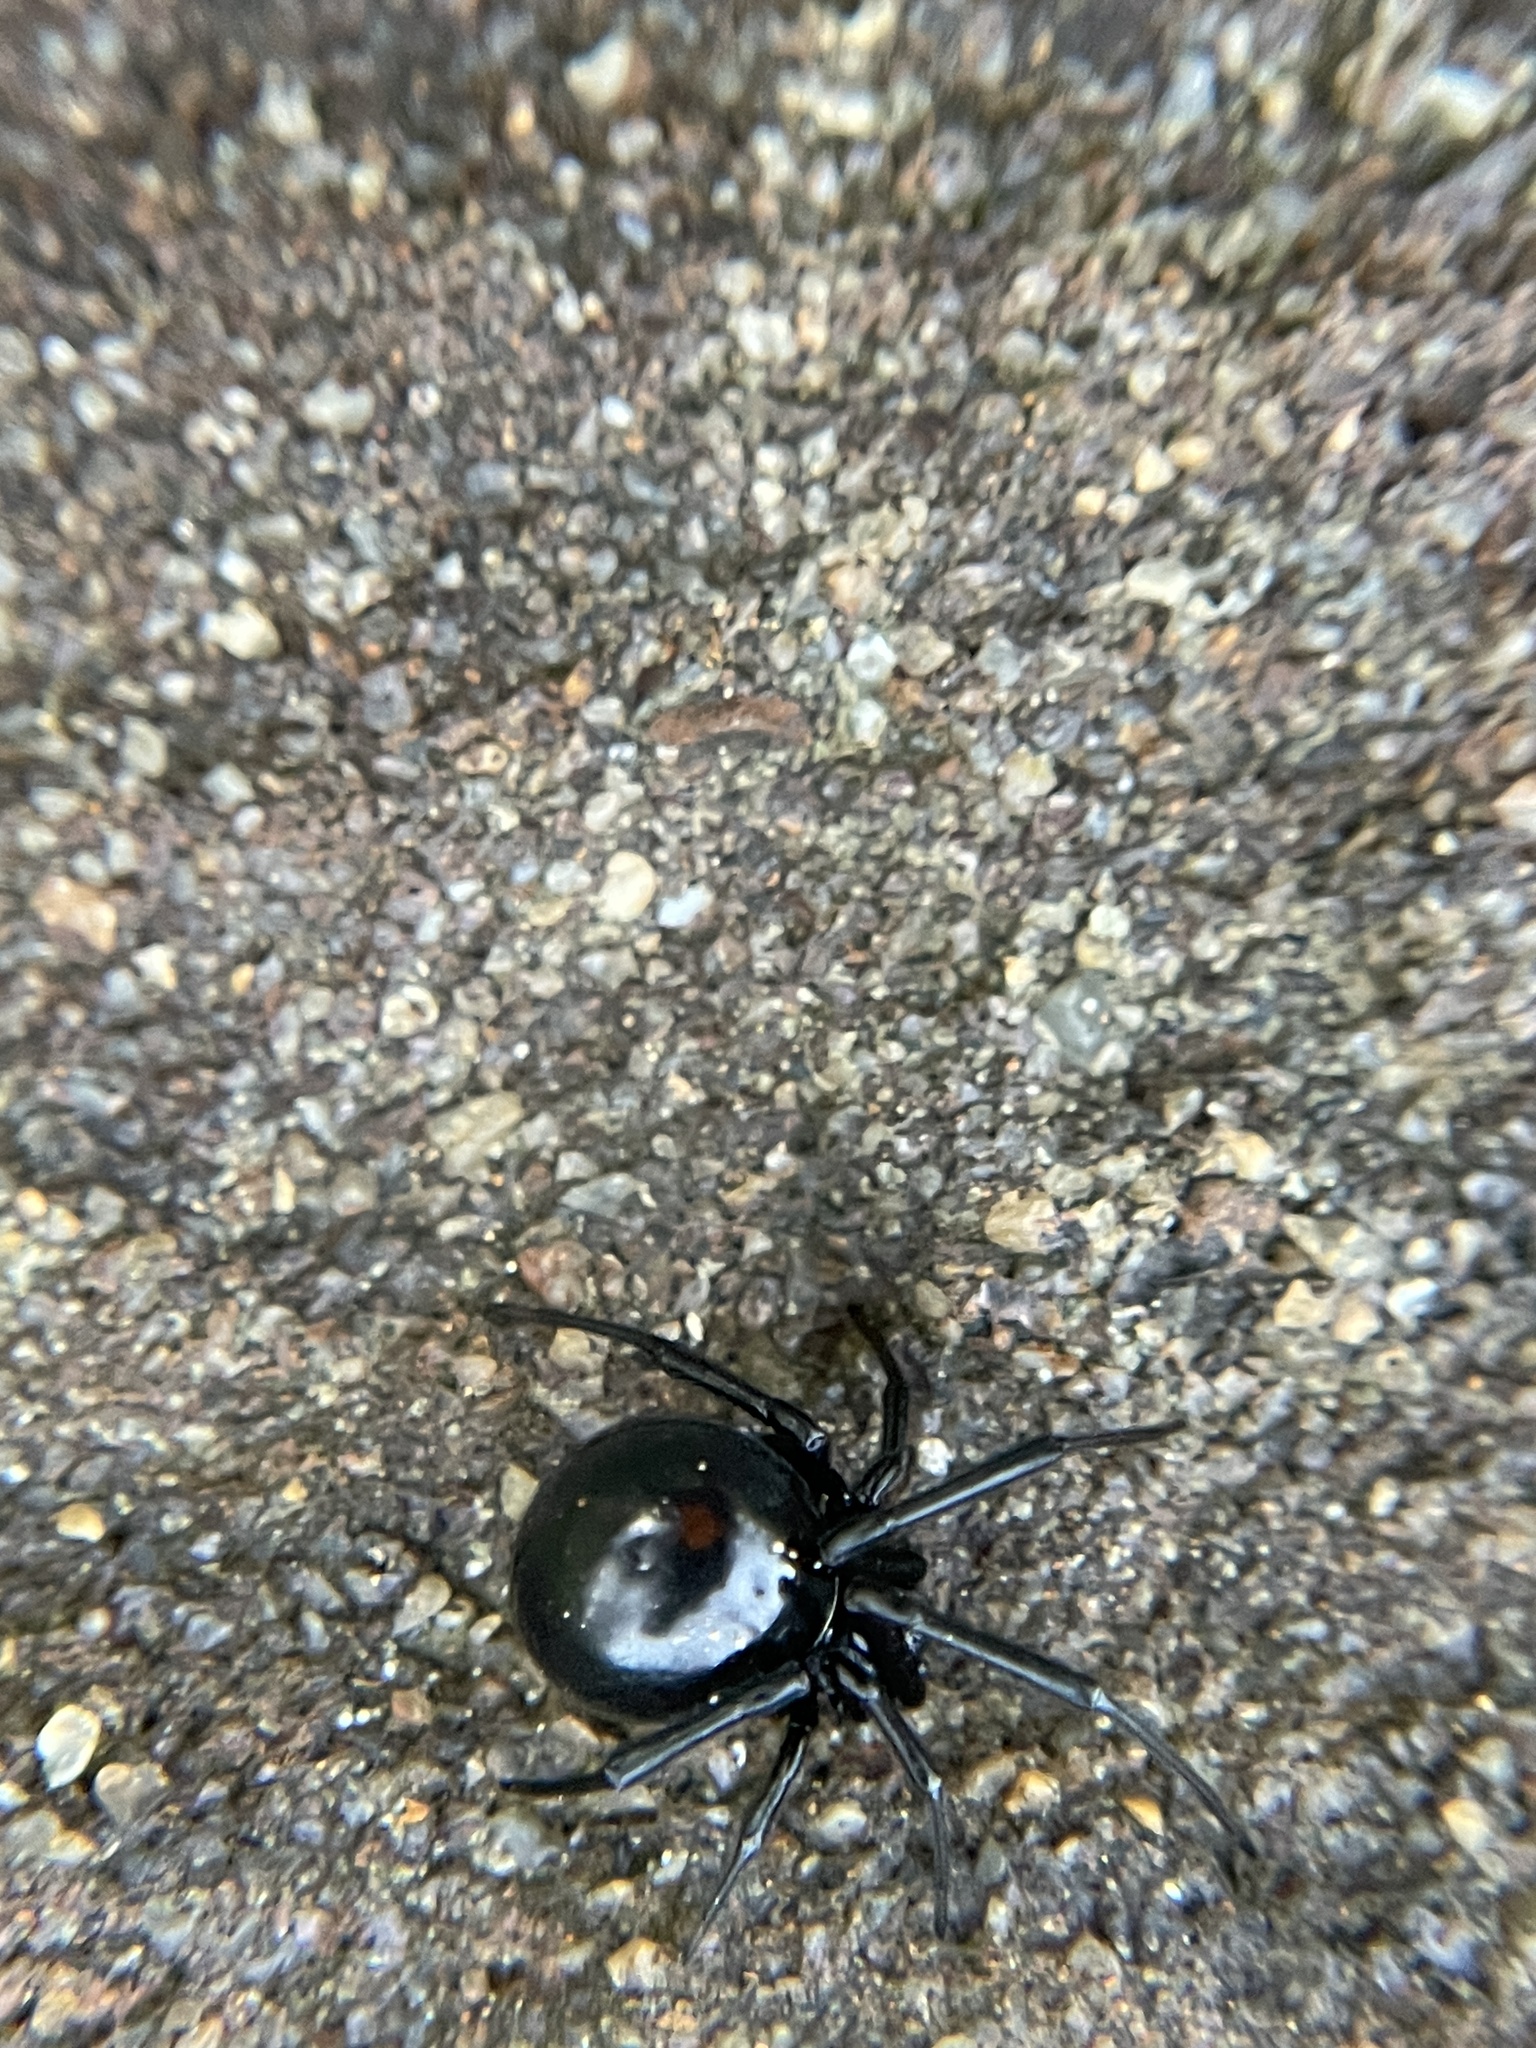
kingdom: Animalia
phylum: Arthropoda
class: Arachnida
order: Araneae
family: Theridiidae
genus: Latrodectus
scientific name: Latrodectus mactans
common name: Cobweb spiders
